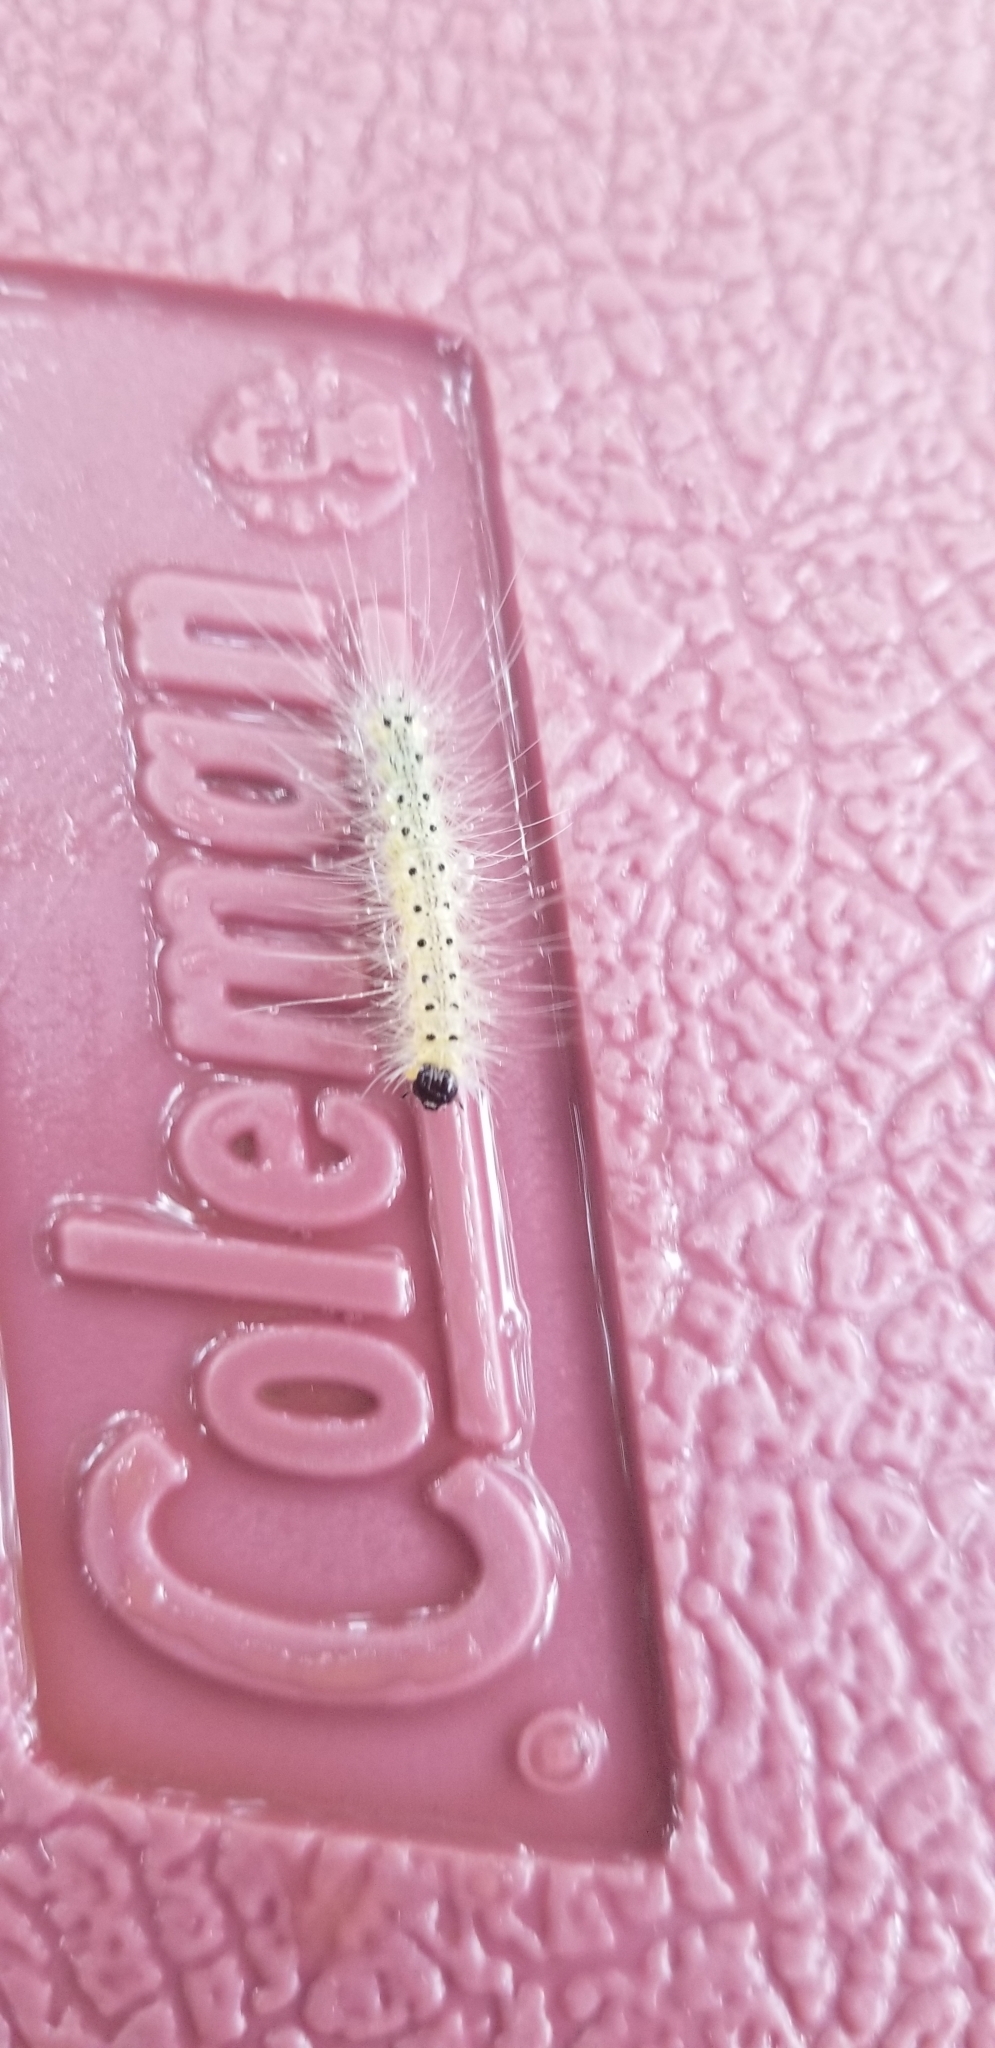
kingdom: Animalia
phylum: Arthropoda
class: Insecta
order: Lepidoptera
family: Erebidae
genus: Hyphantria
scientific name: Hyphantria cunea
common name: American white moth
